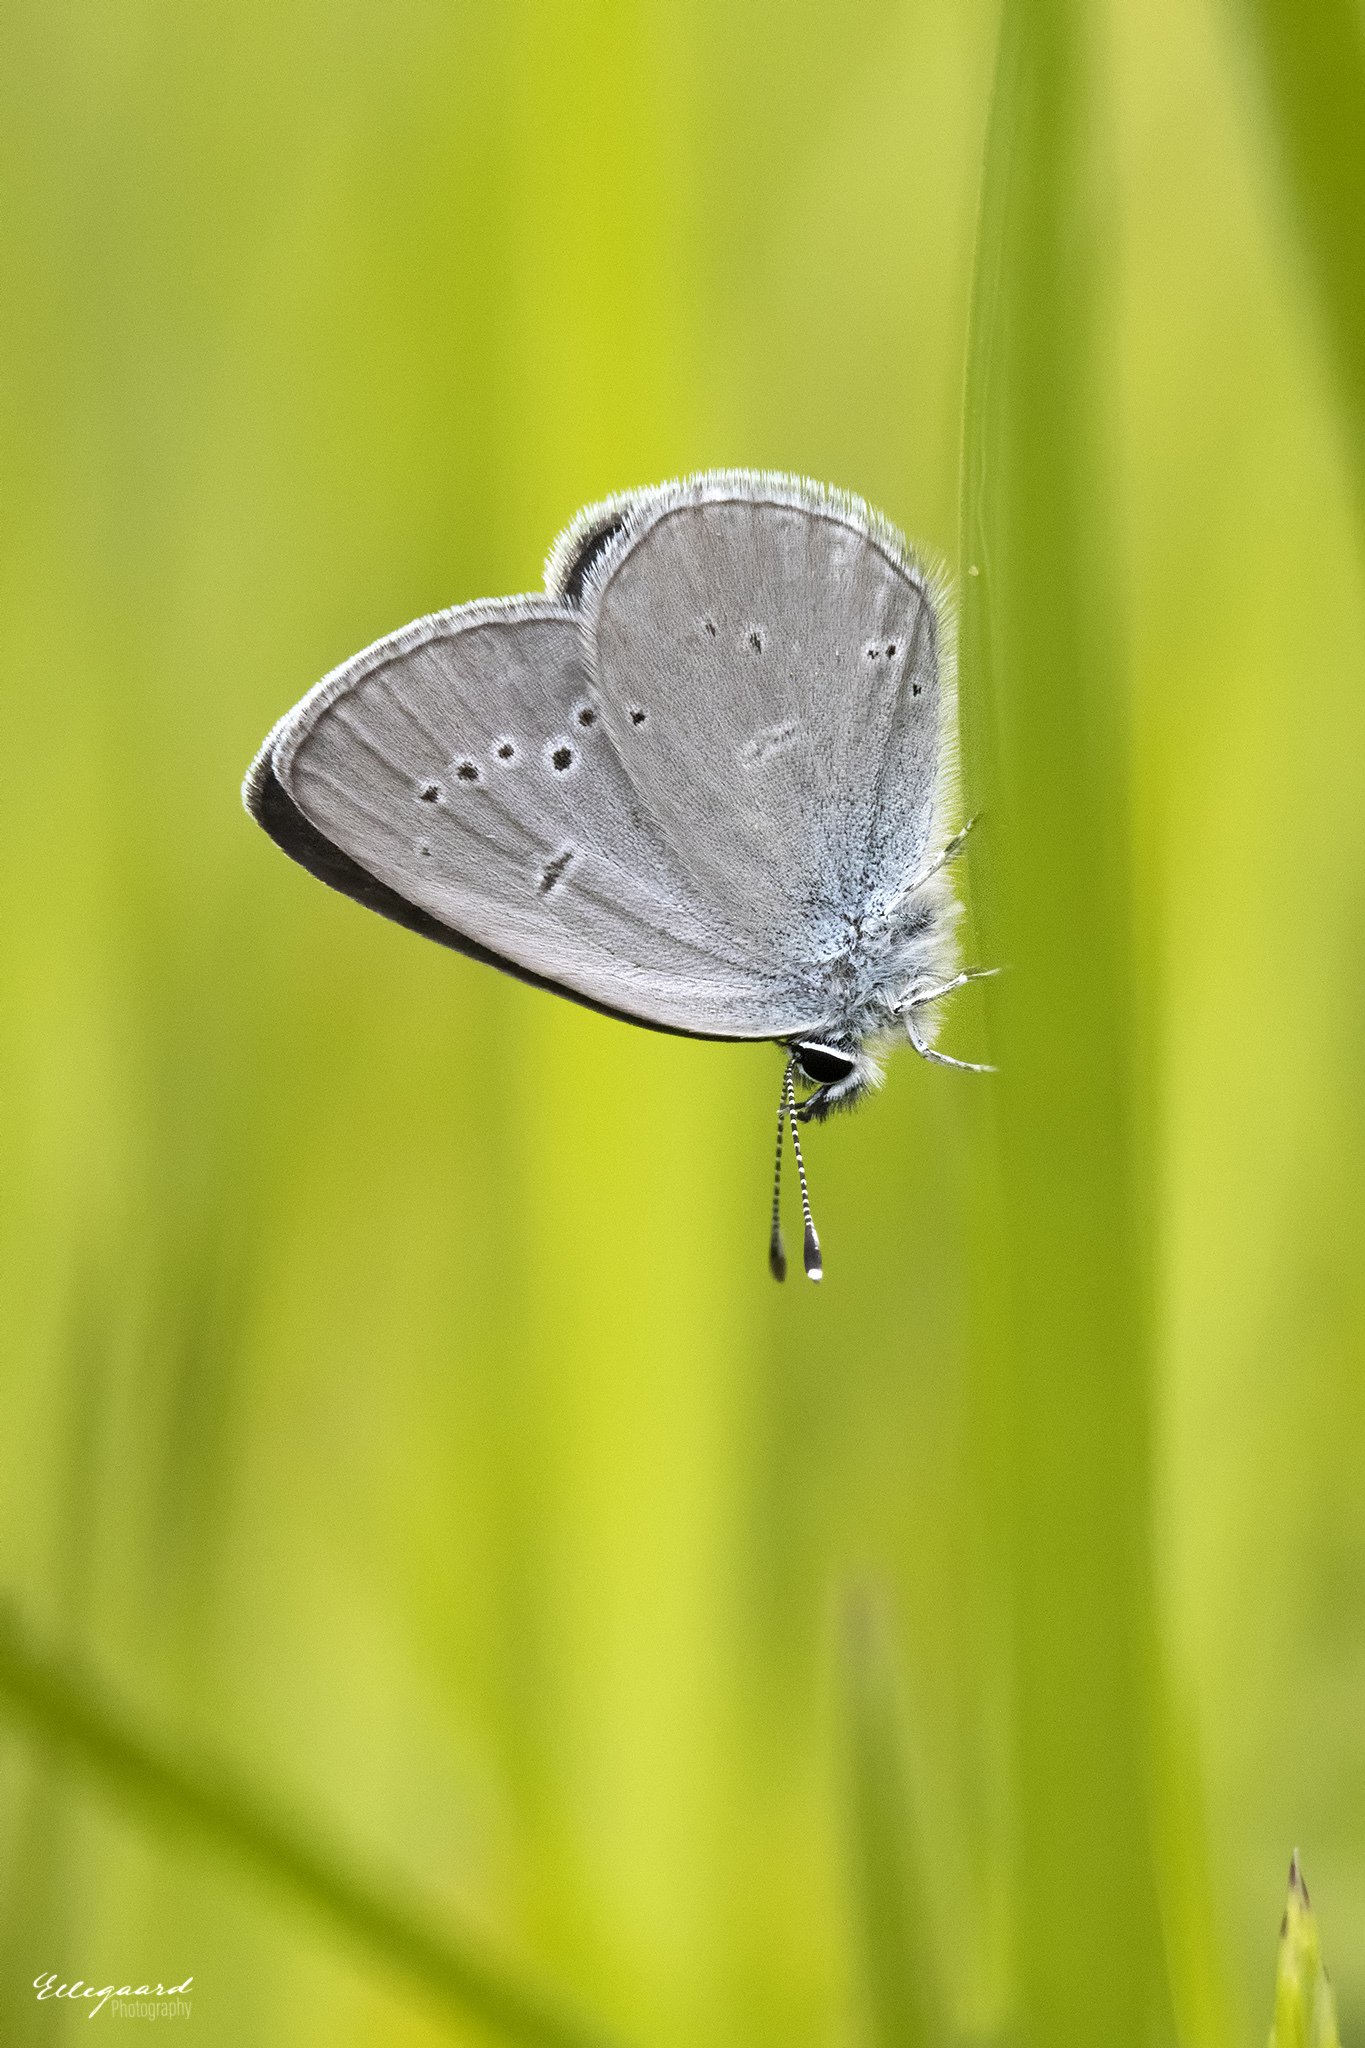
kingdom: Animalia
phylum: Arthropoda
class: Insecta
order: Lepidoptera
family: Lycaenidae
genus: Cupido
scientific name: Cupido minimus
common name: Small blue
